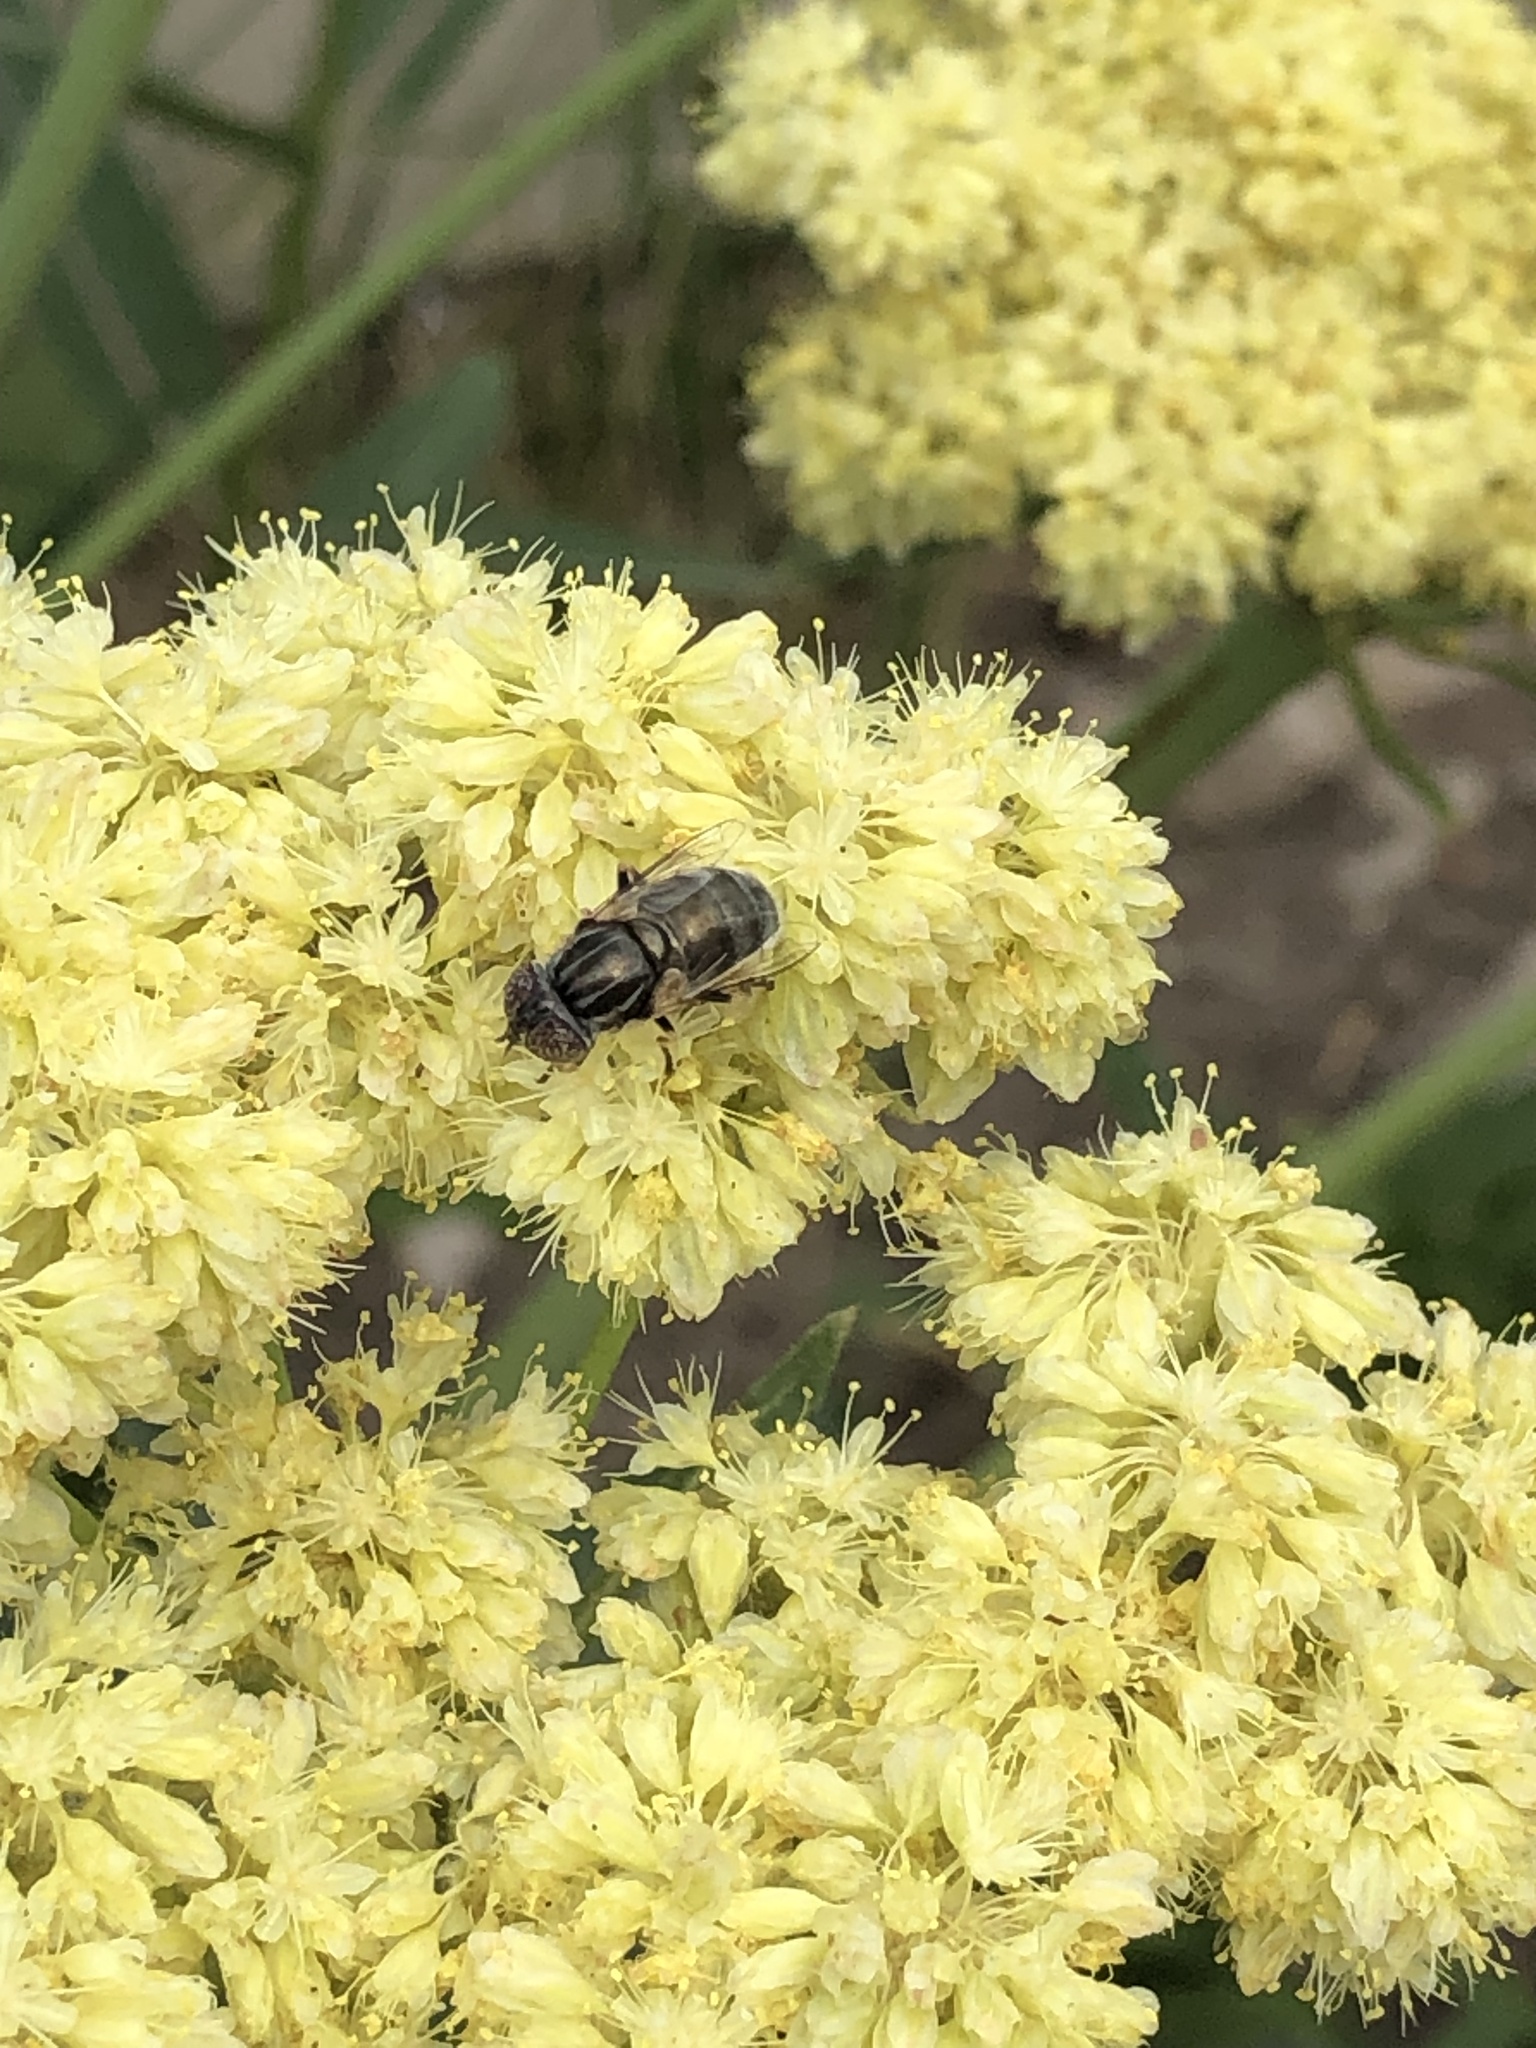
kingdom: Animalia
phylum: Arthropoda
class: Insecta
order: Diptera
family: Syrphidae
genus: Eristalinus
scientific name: Eristalinus aeneus
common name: Syrphid fly
